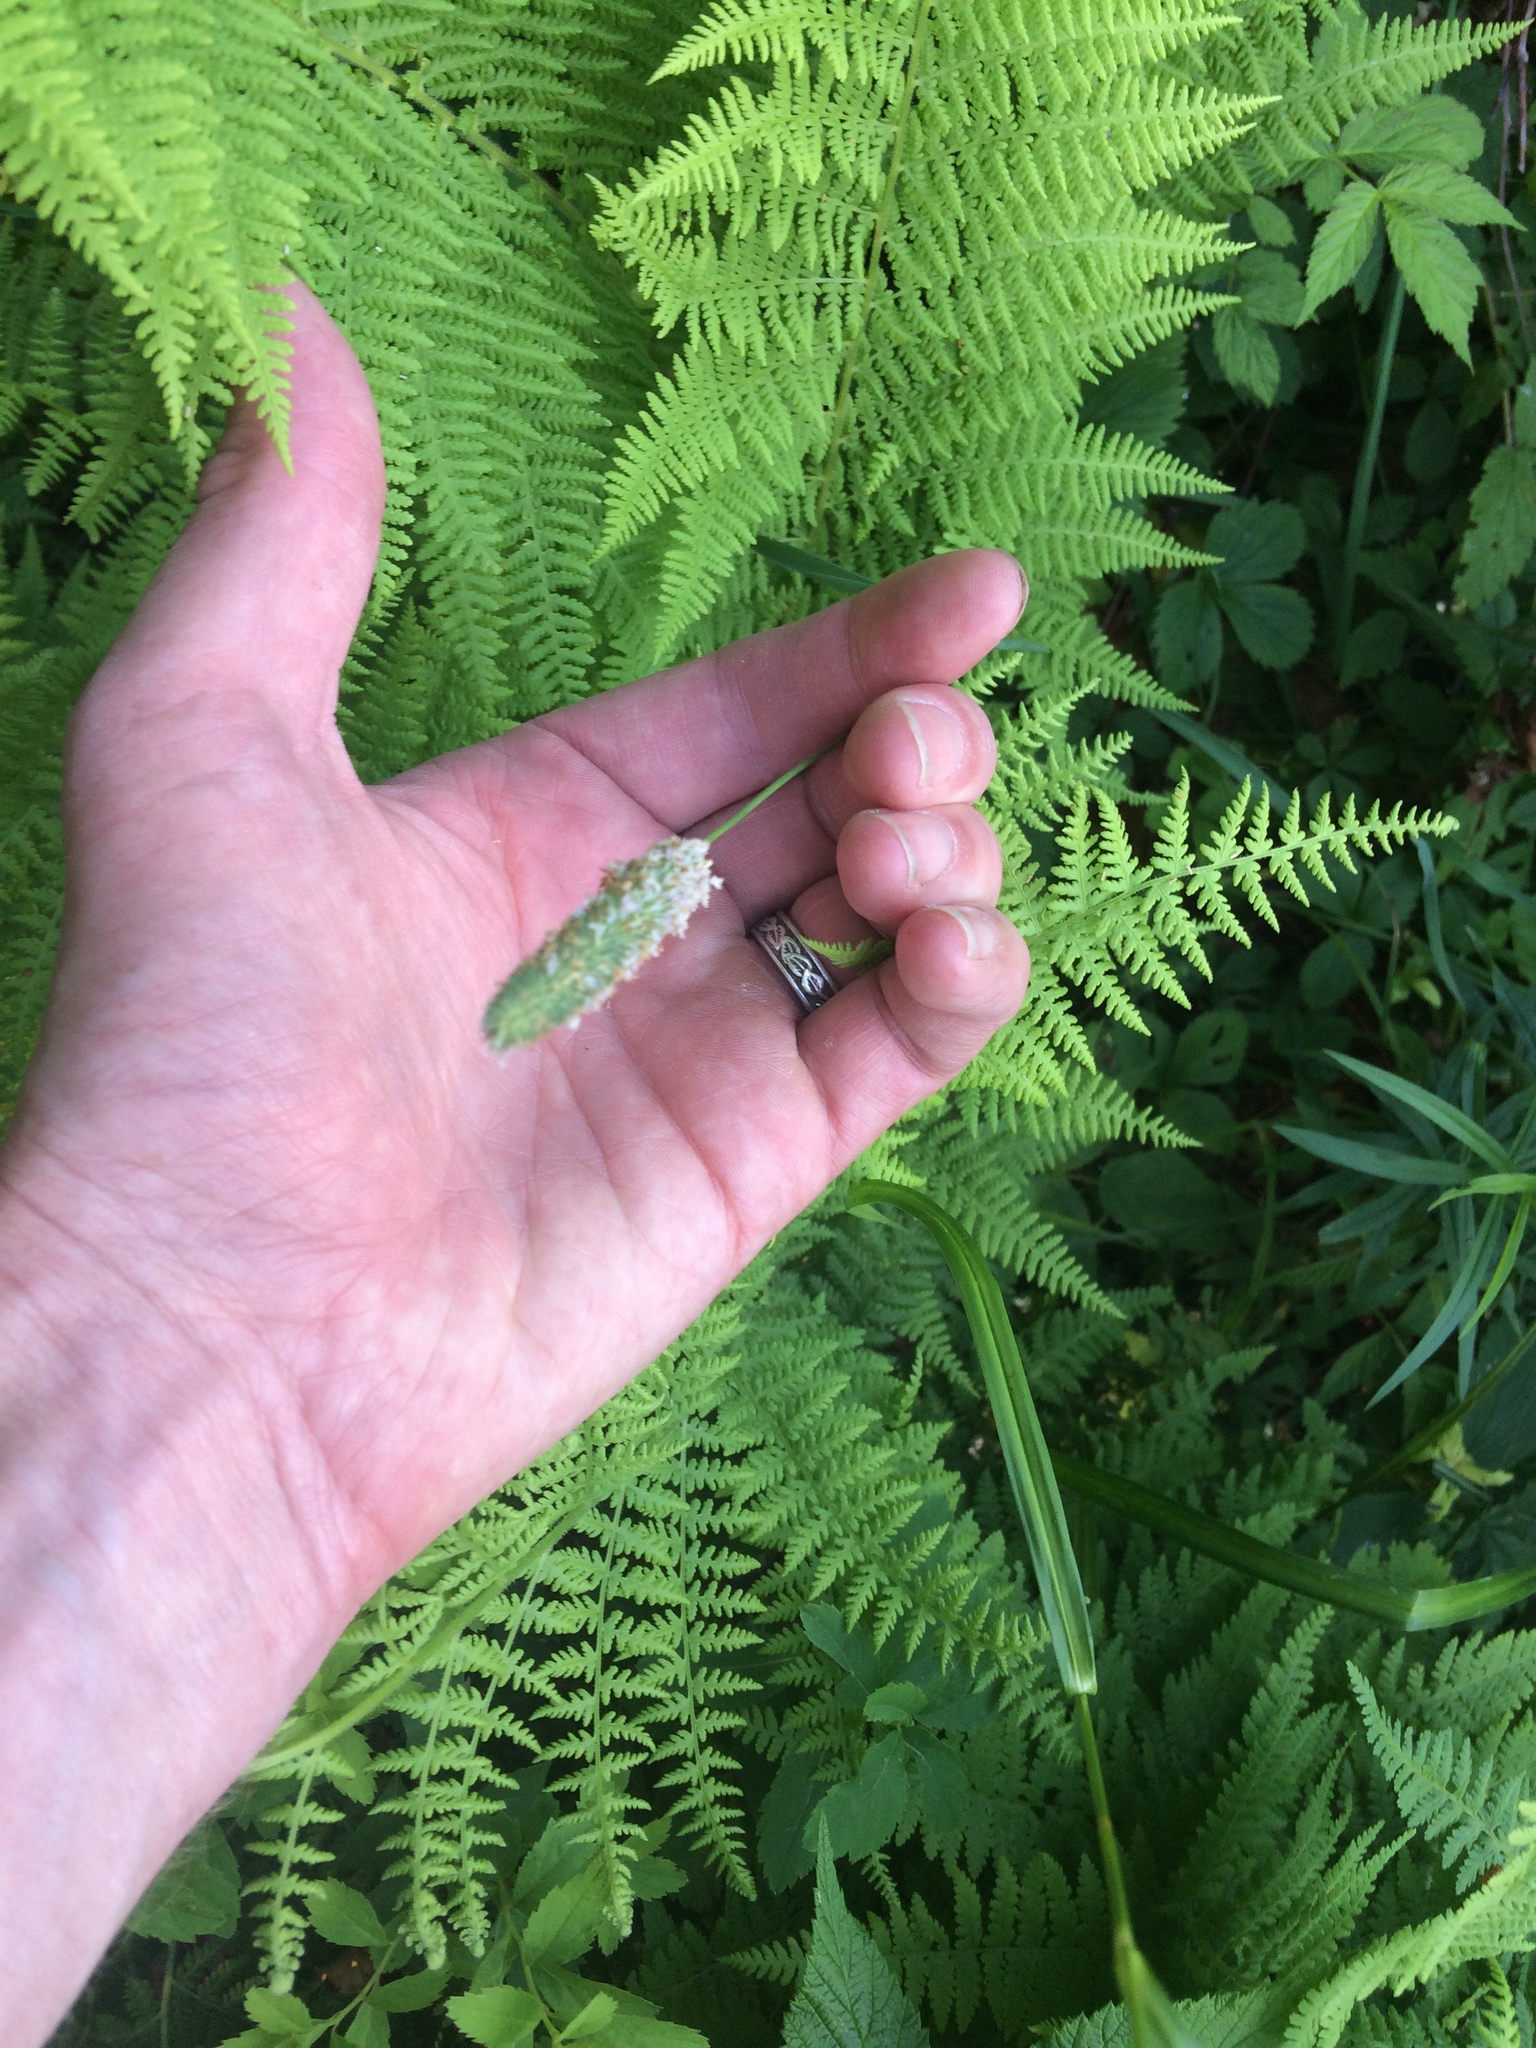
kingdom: Plantae
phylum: Tracheophyta
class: Liliopsida
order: Poales
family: Poaceae
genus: Phleum
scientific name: Phleum pratense
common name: Timothy grass
